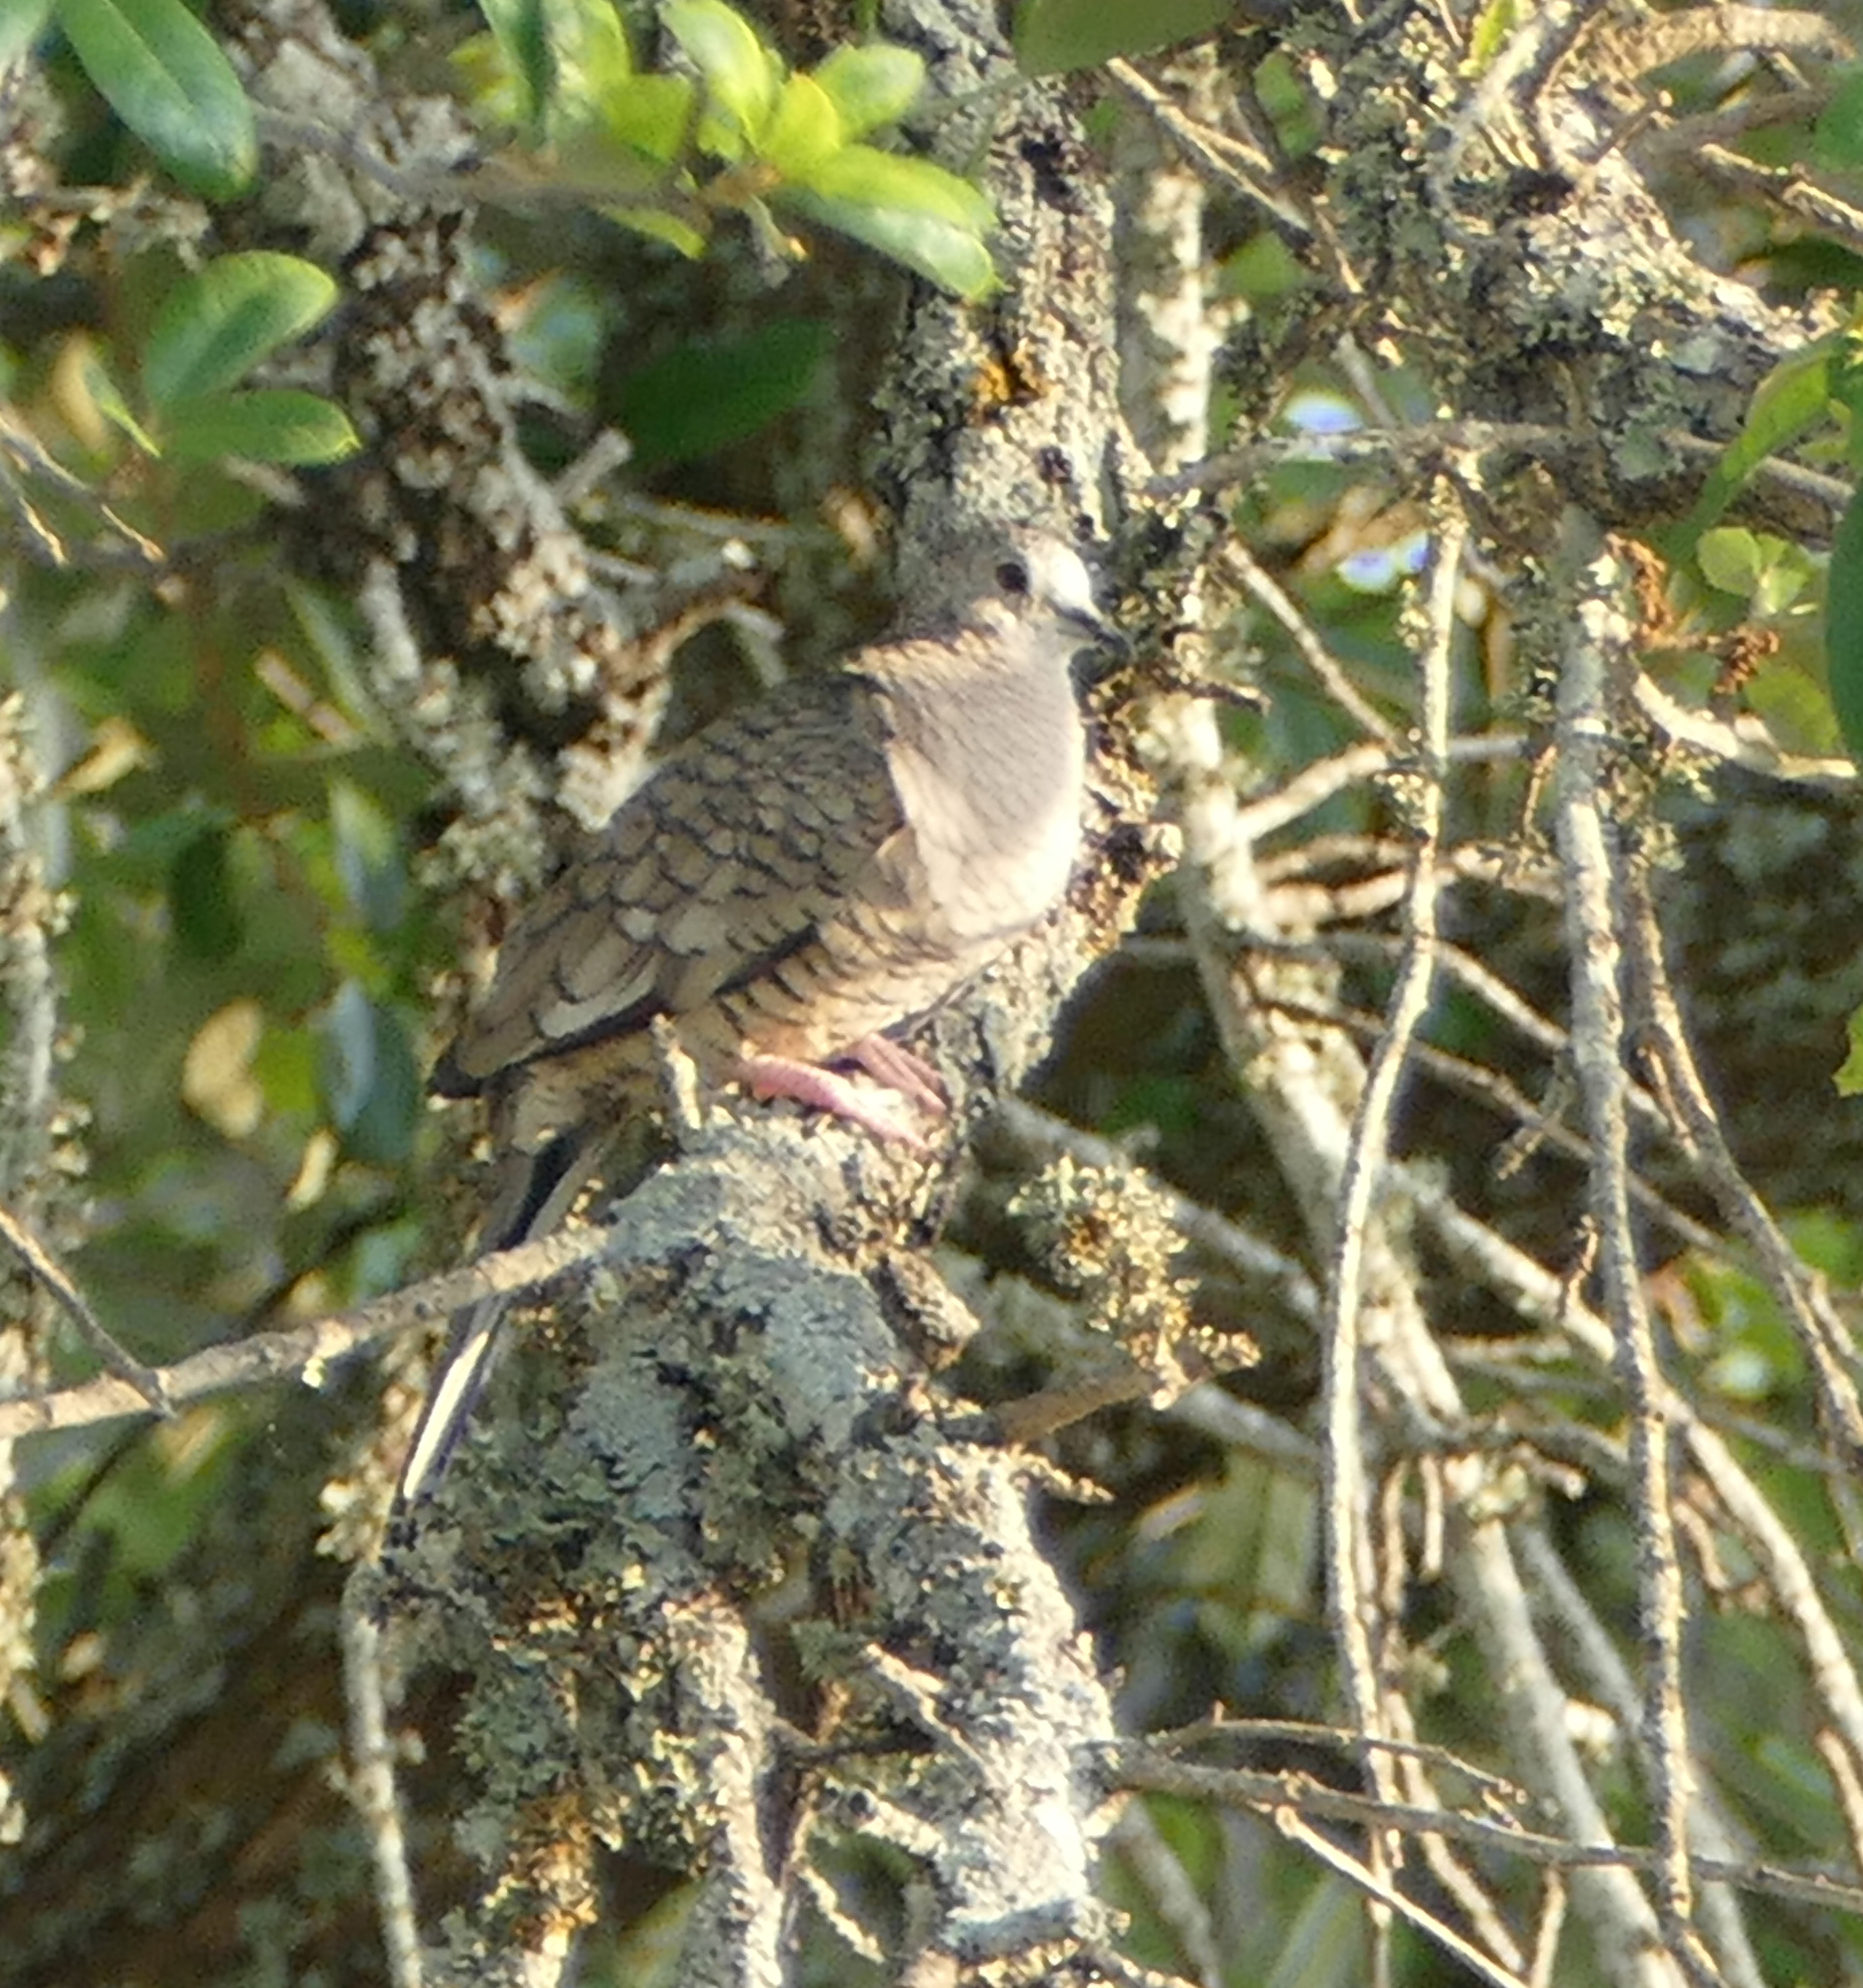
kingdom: Animalia
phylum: Chordata
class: Aves
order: Columbiformes
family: Columbidae
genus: Columbina
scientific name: Columbina inca
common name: Inca dove
